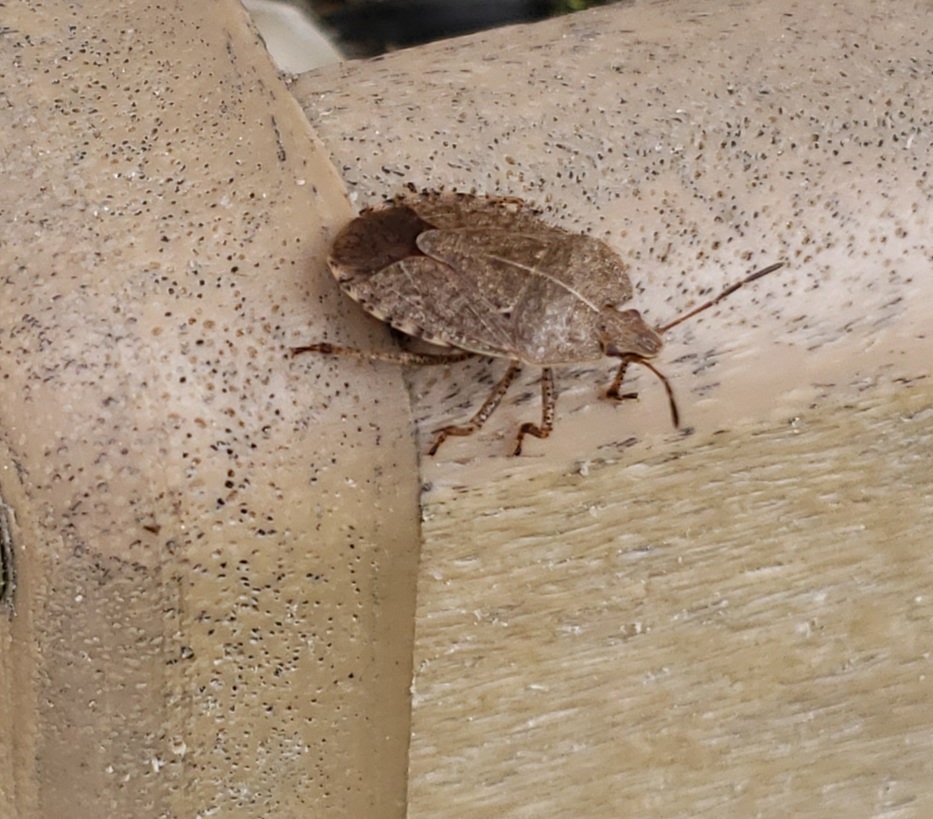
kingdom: Animalia
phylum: Arthropoda
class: Insecta
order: Hemiptera
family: Pentatomidae
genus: Menecles
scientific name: Menecles insertus
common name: Elf shoe stink bug
